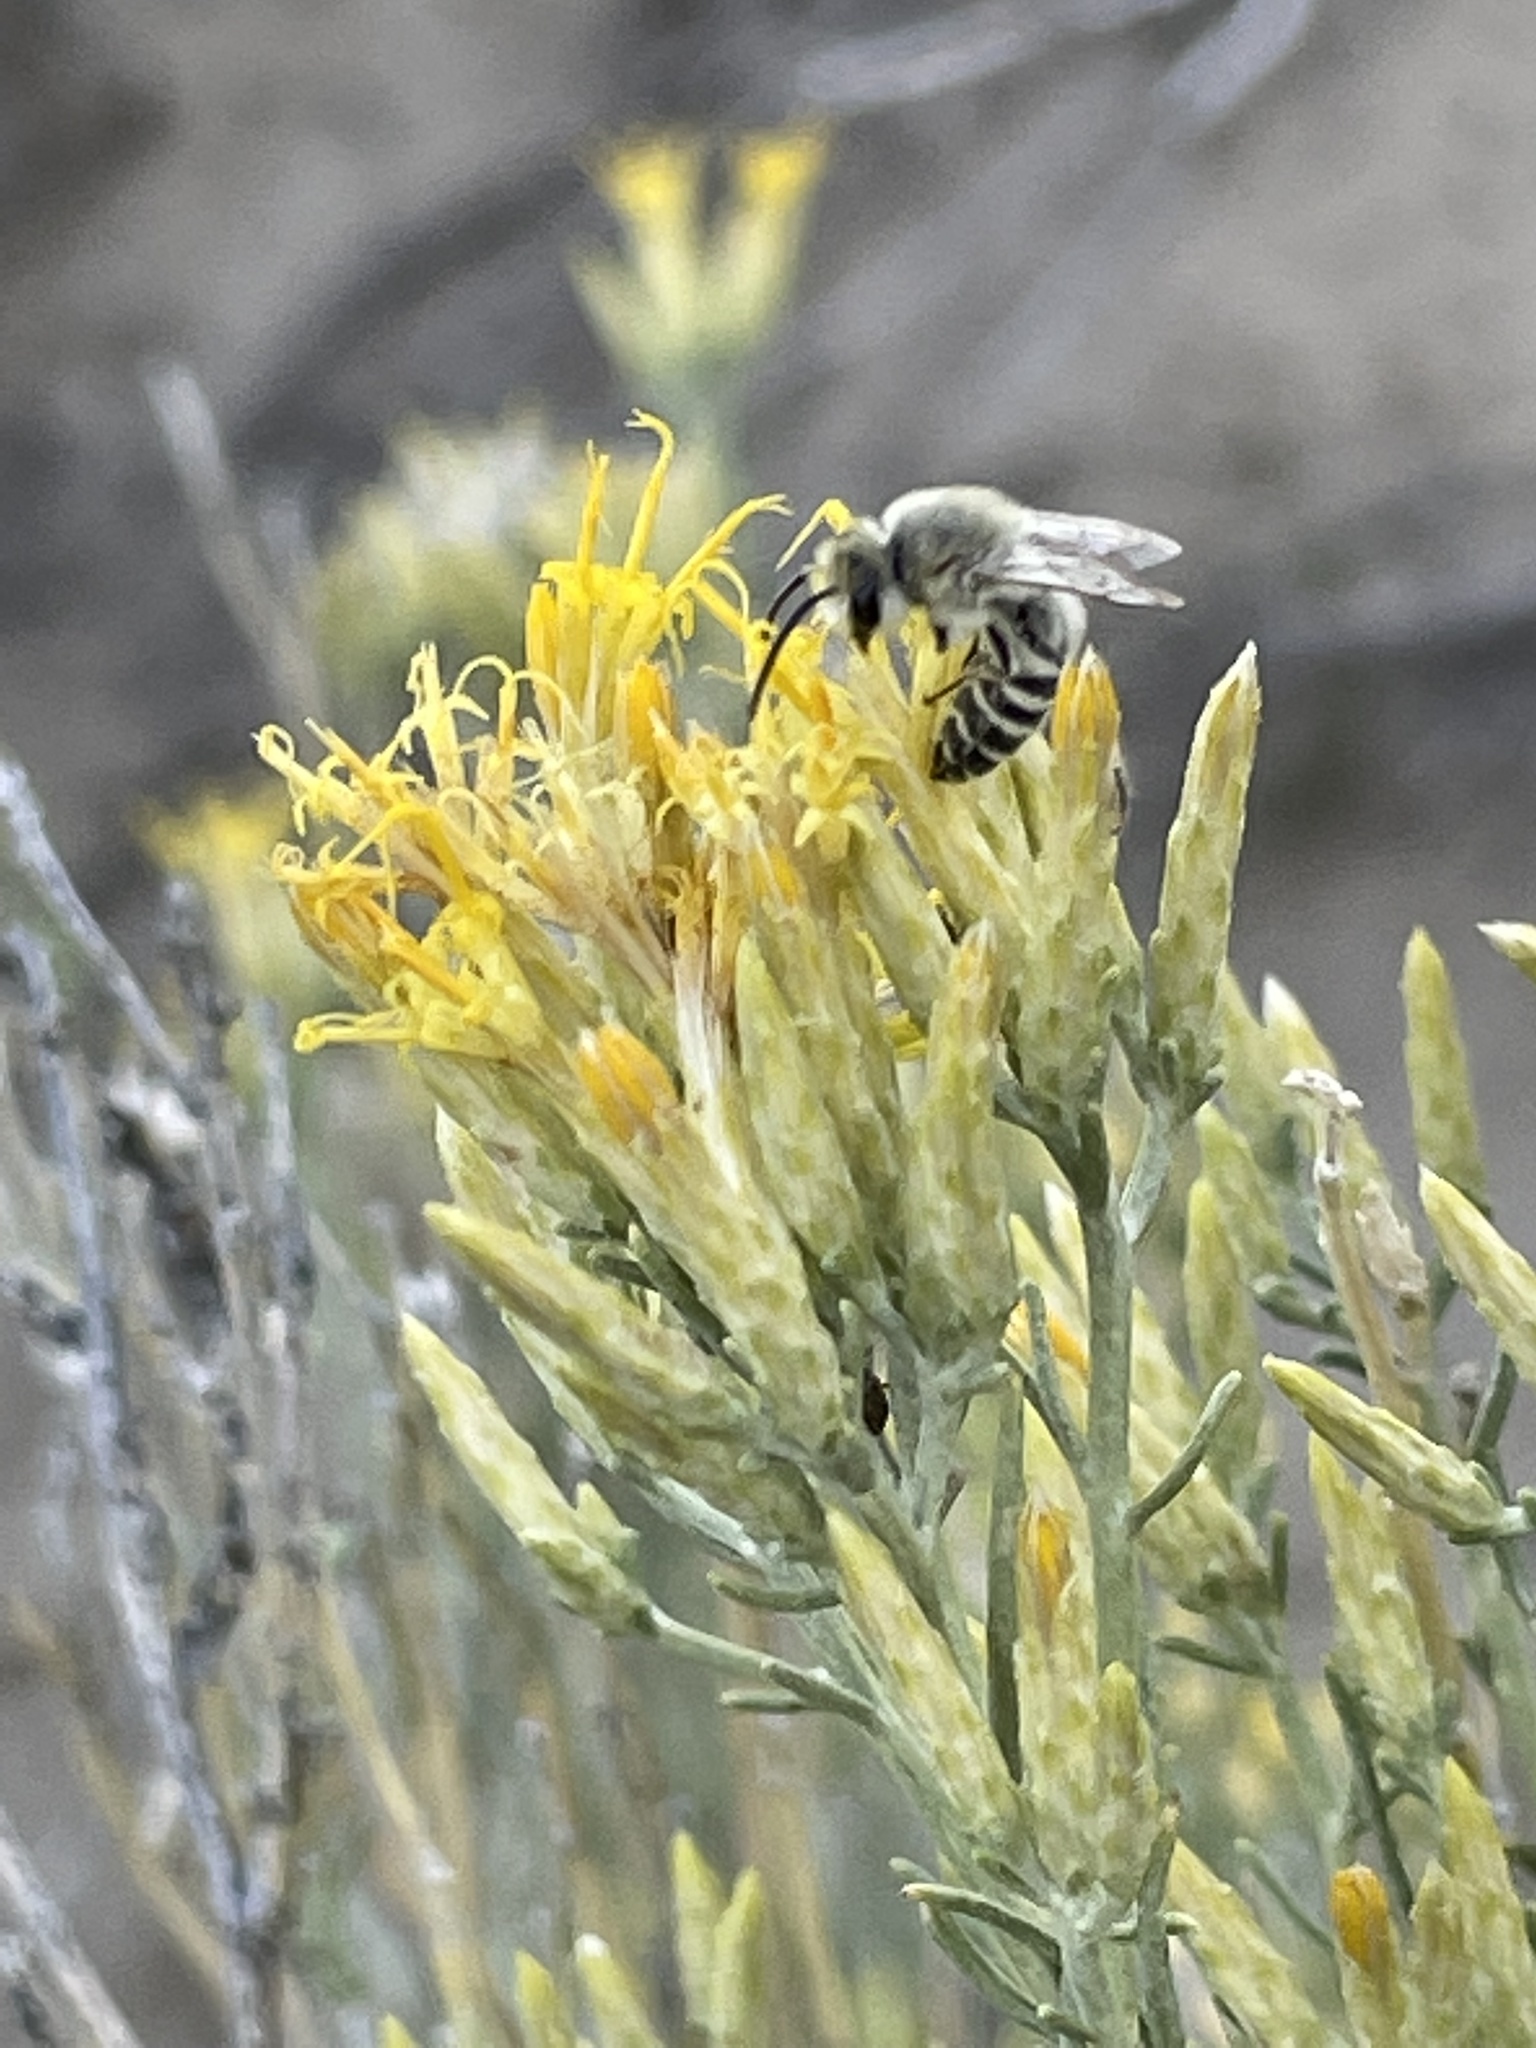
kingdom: Plantae
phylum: Tracheophyta
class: Magnoliopsida
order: Asterales
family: Asteraceae
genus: Ericameria
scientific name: Ericameria nauseosa
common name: Rubber rabbitbrush
